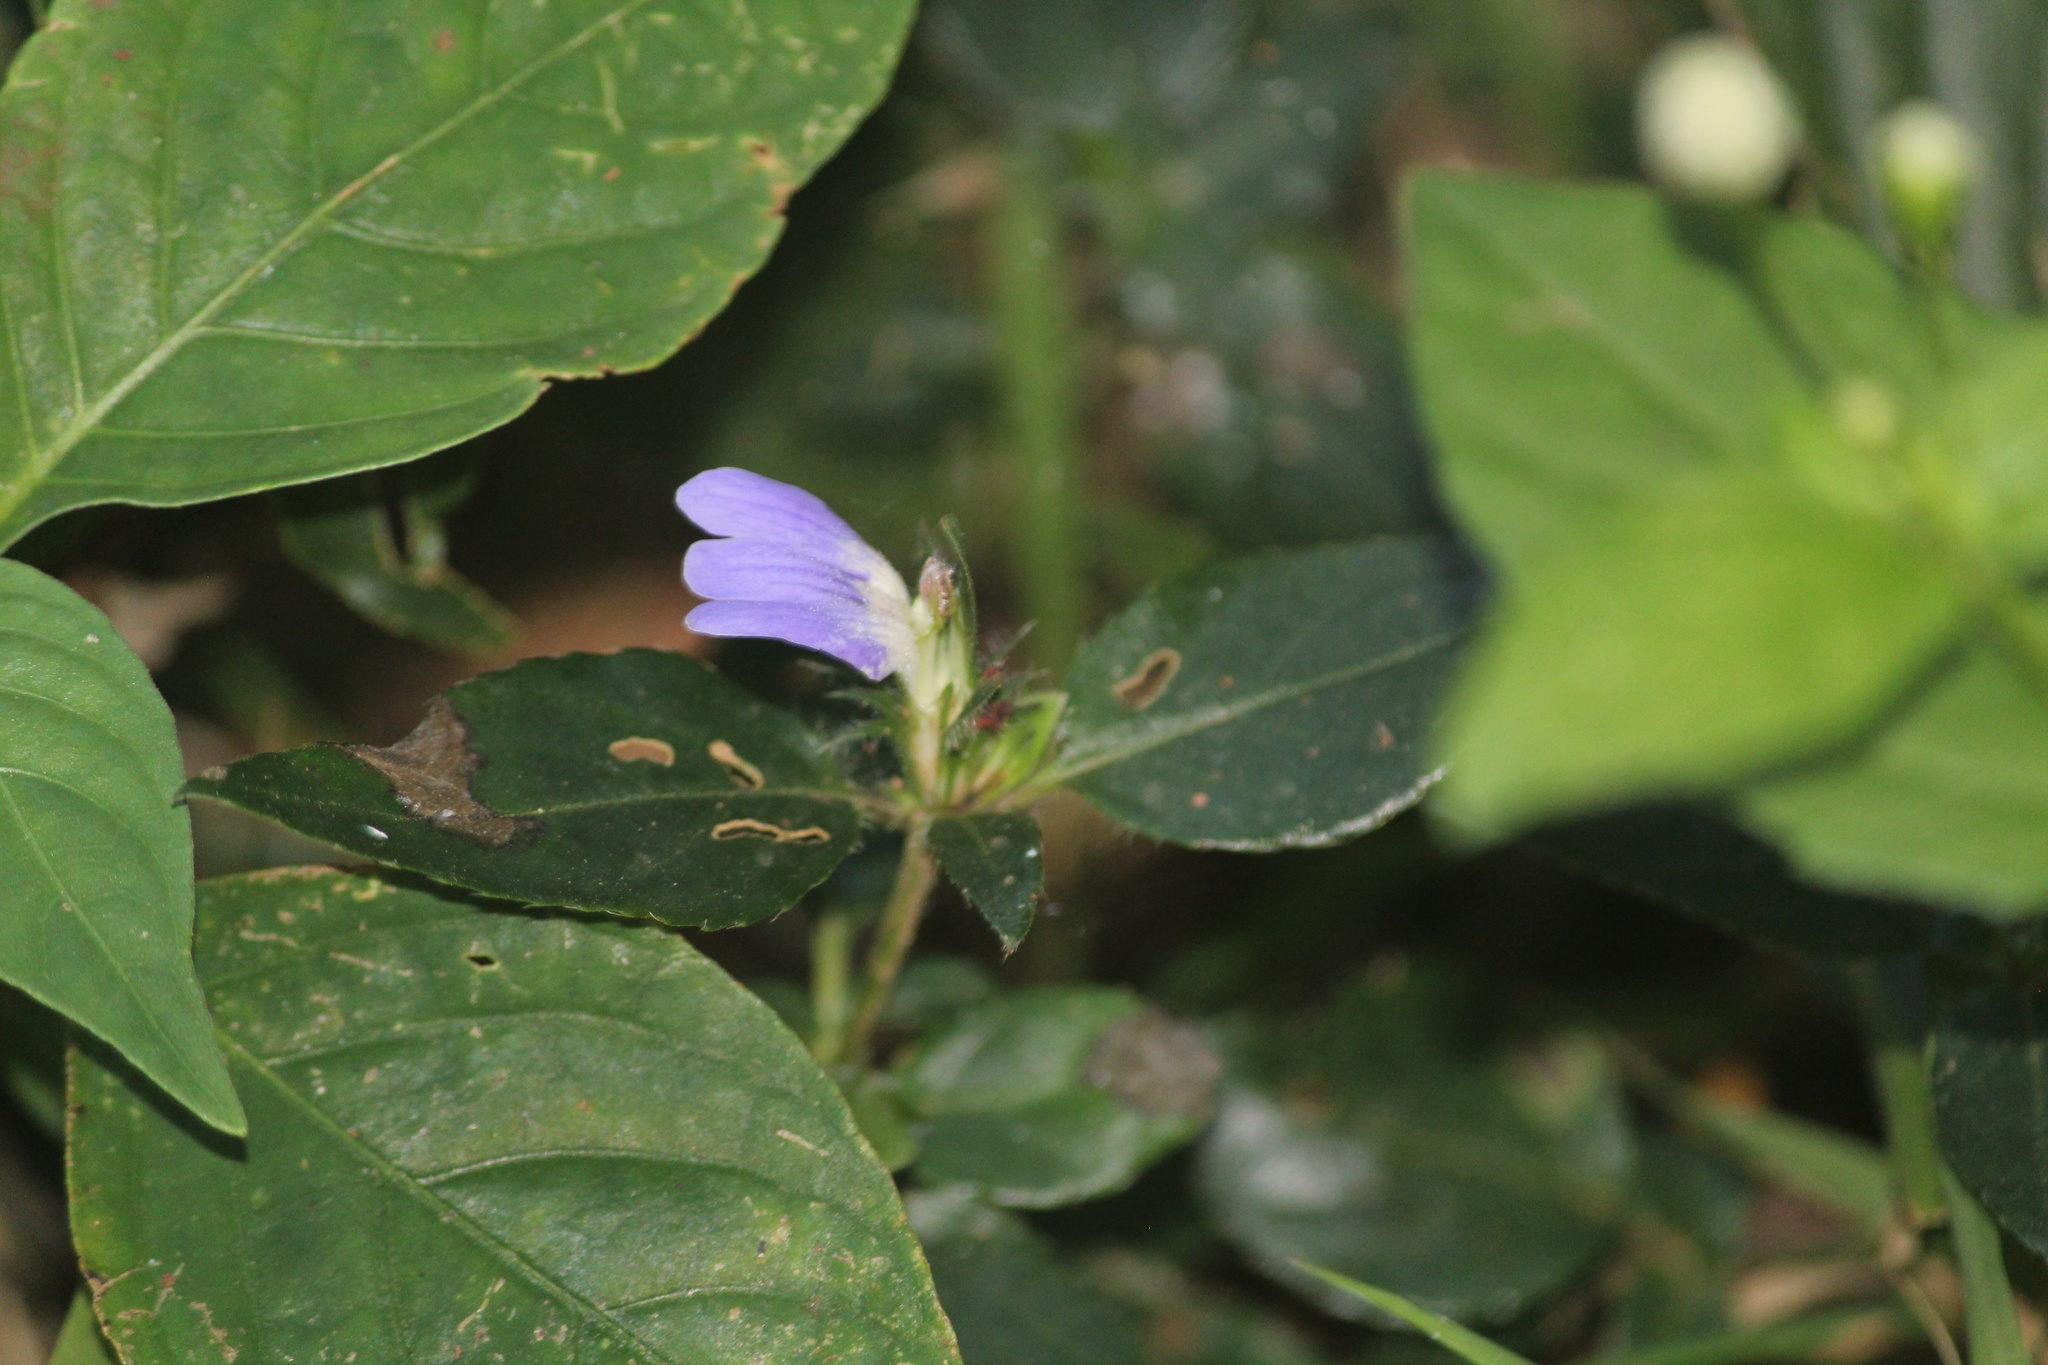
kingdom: Plantae
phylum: Tracheophyta
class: Magnoliopsida
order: Lamiales
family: Acanthaceae
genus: Cynarospermum
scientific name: Cynarospermum asperrimum
